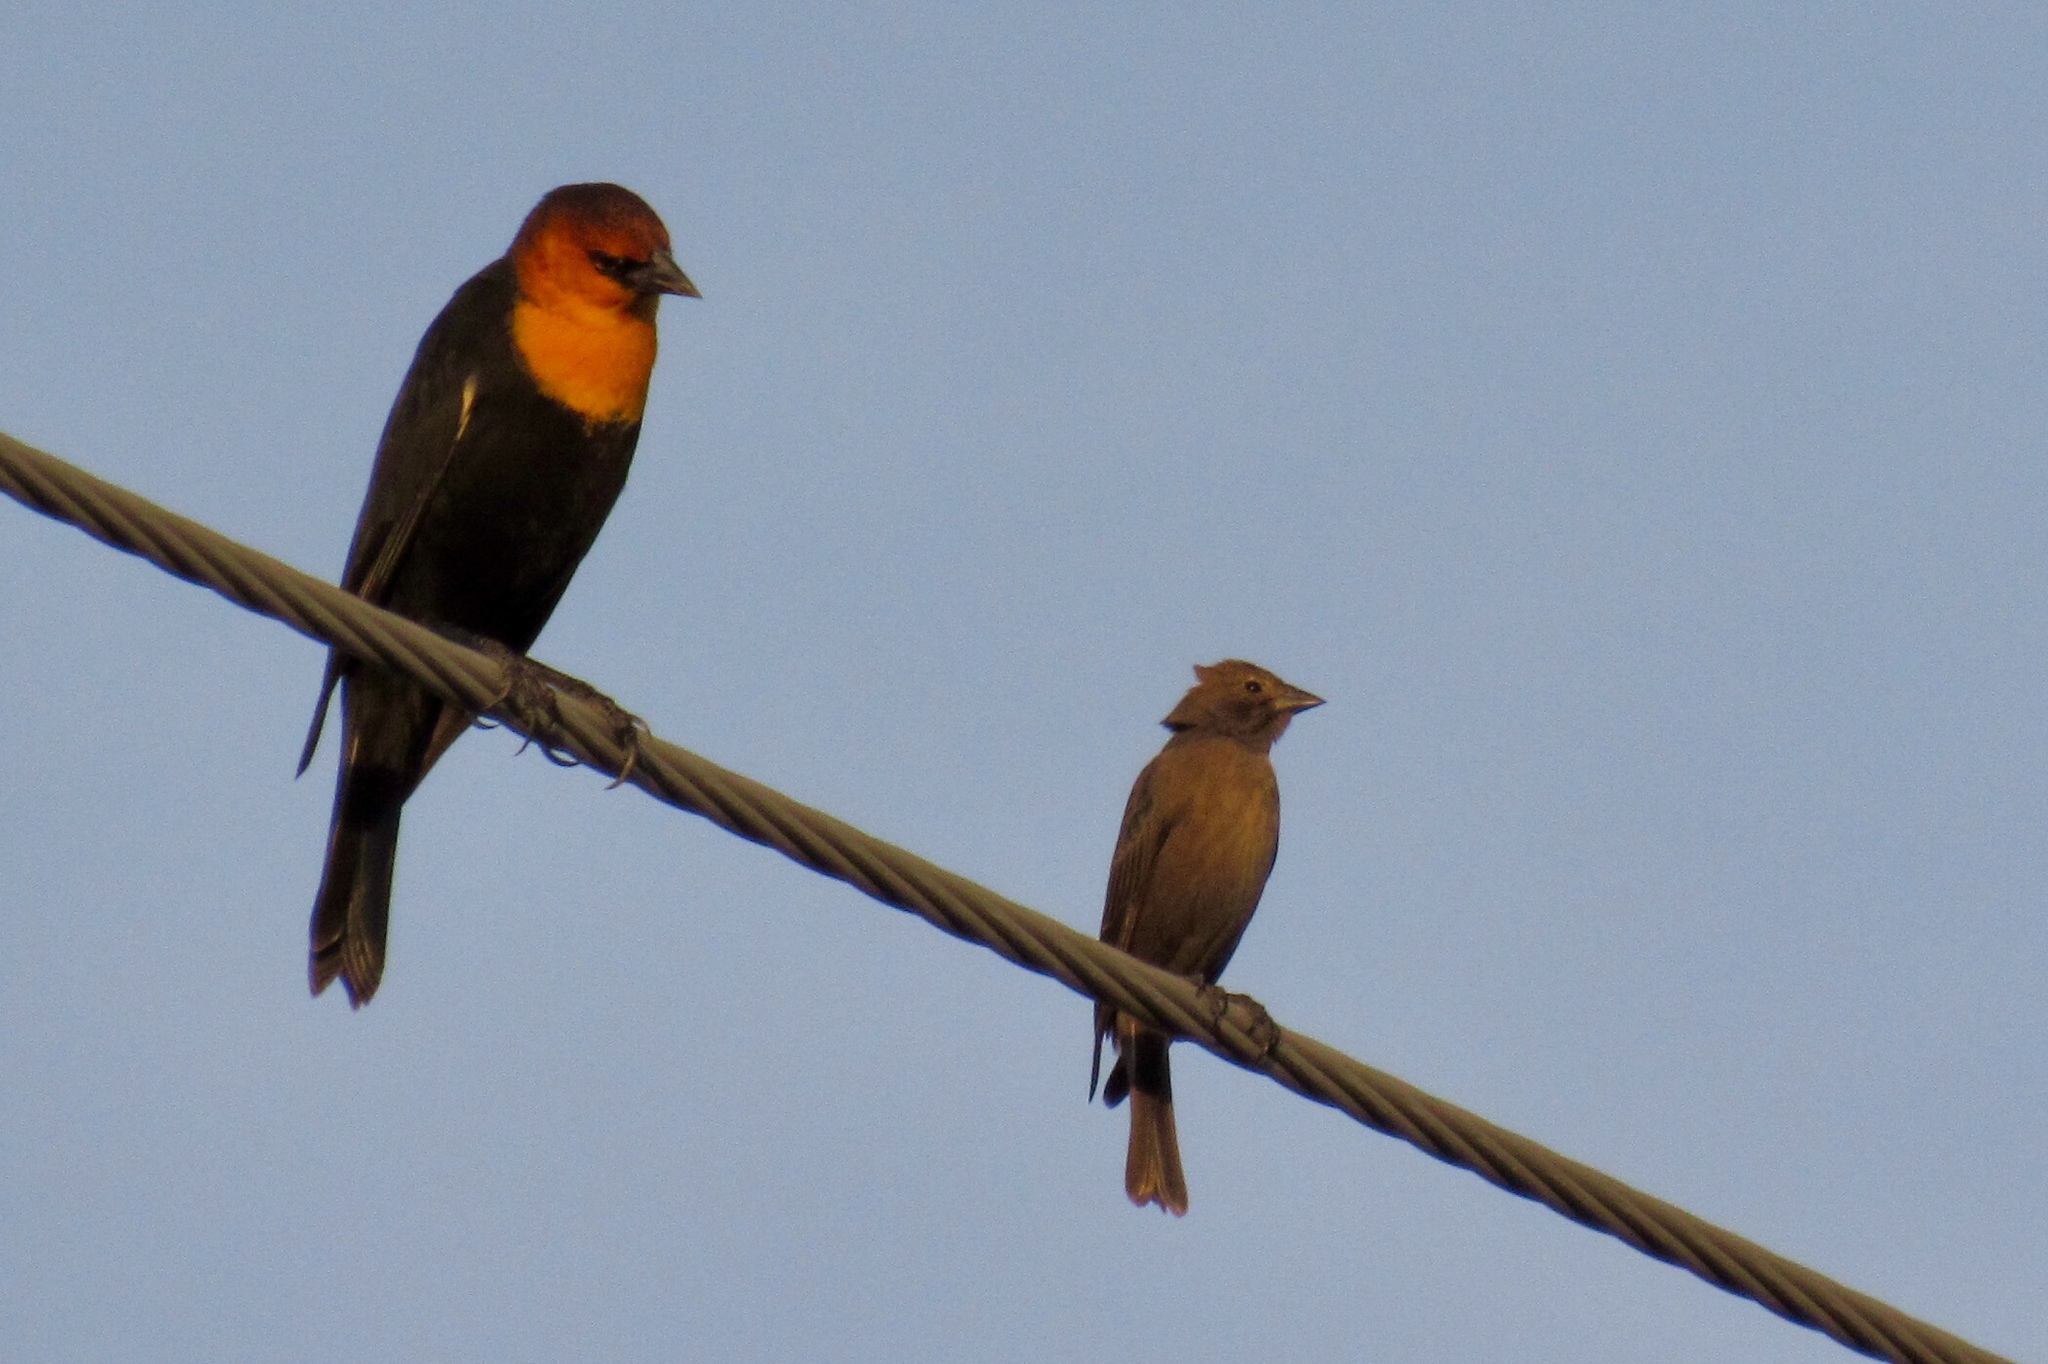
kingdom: Animalia
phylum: Chordata
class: Aves
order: Passeriformes
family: Icteridae
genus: Xanthocephalus
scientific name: Xanthocephalus xanthocephalus
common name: Yellow-headed blackbird
